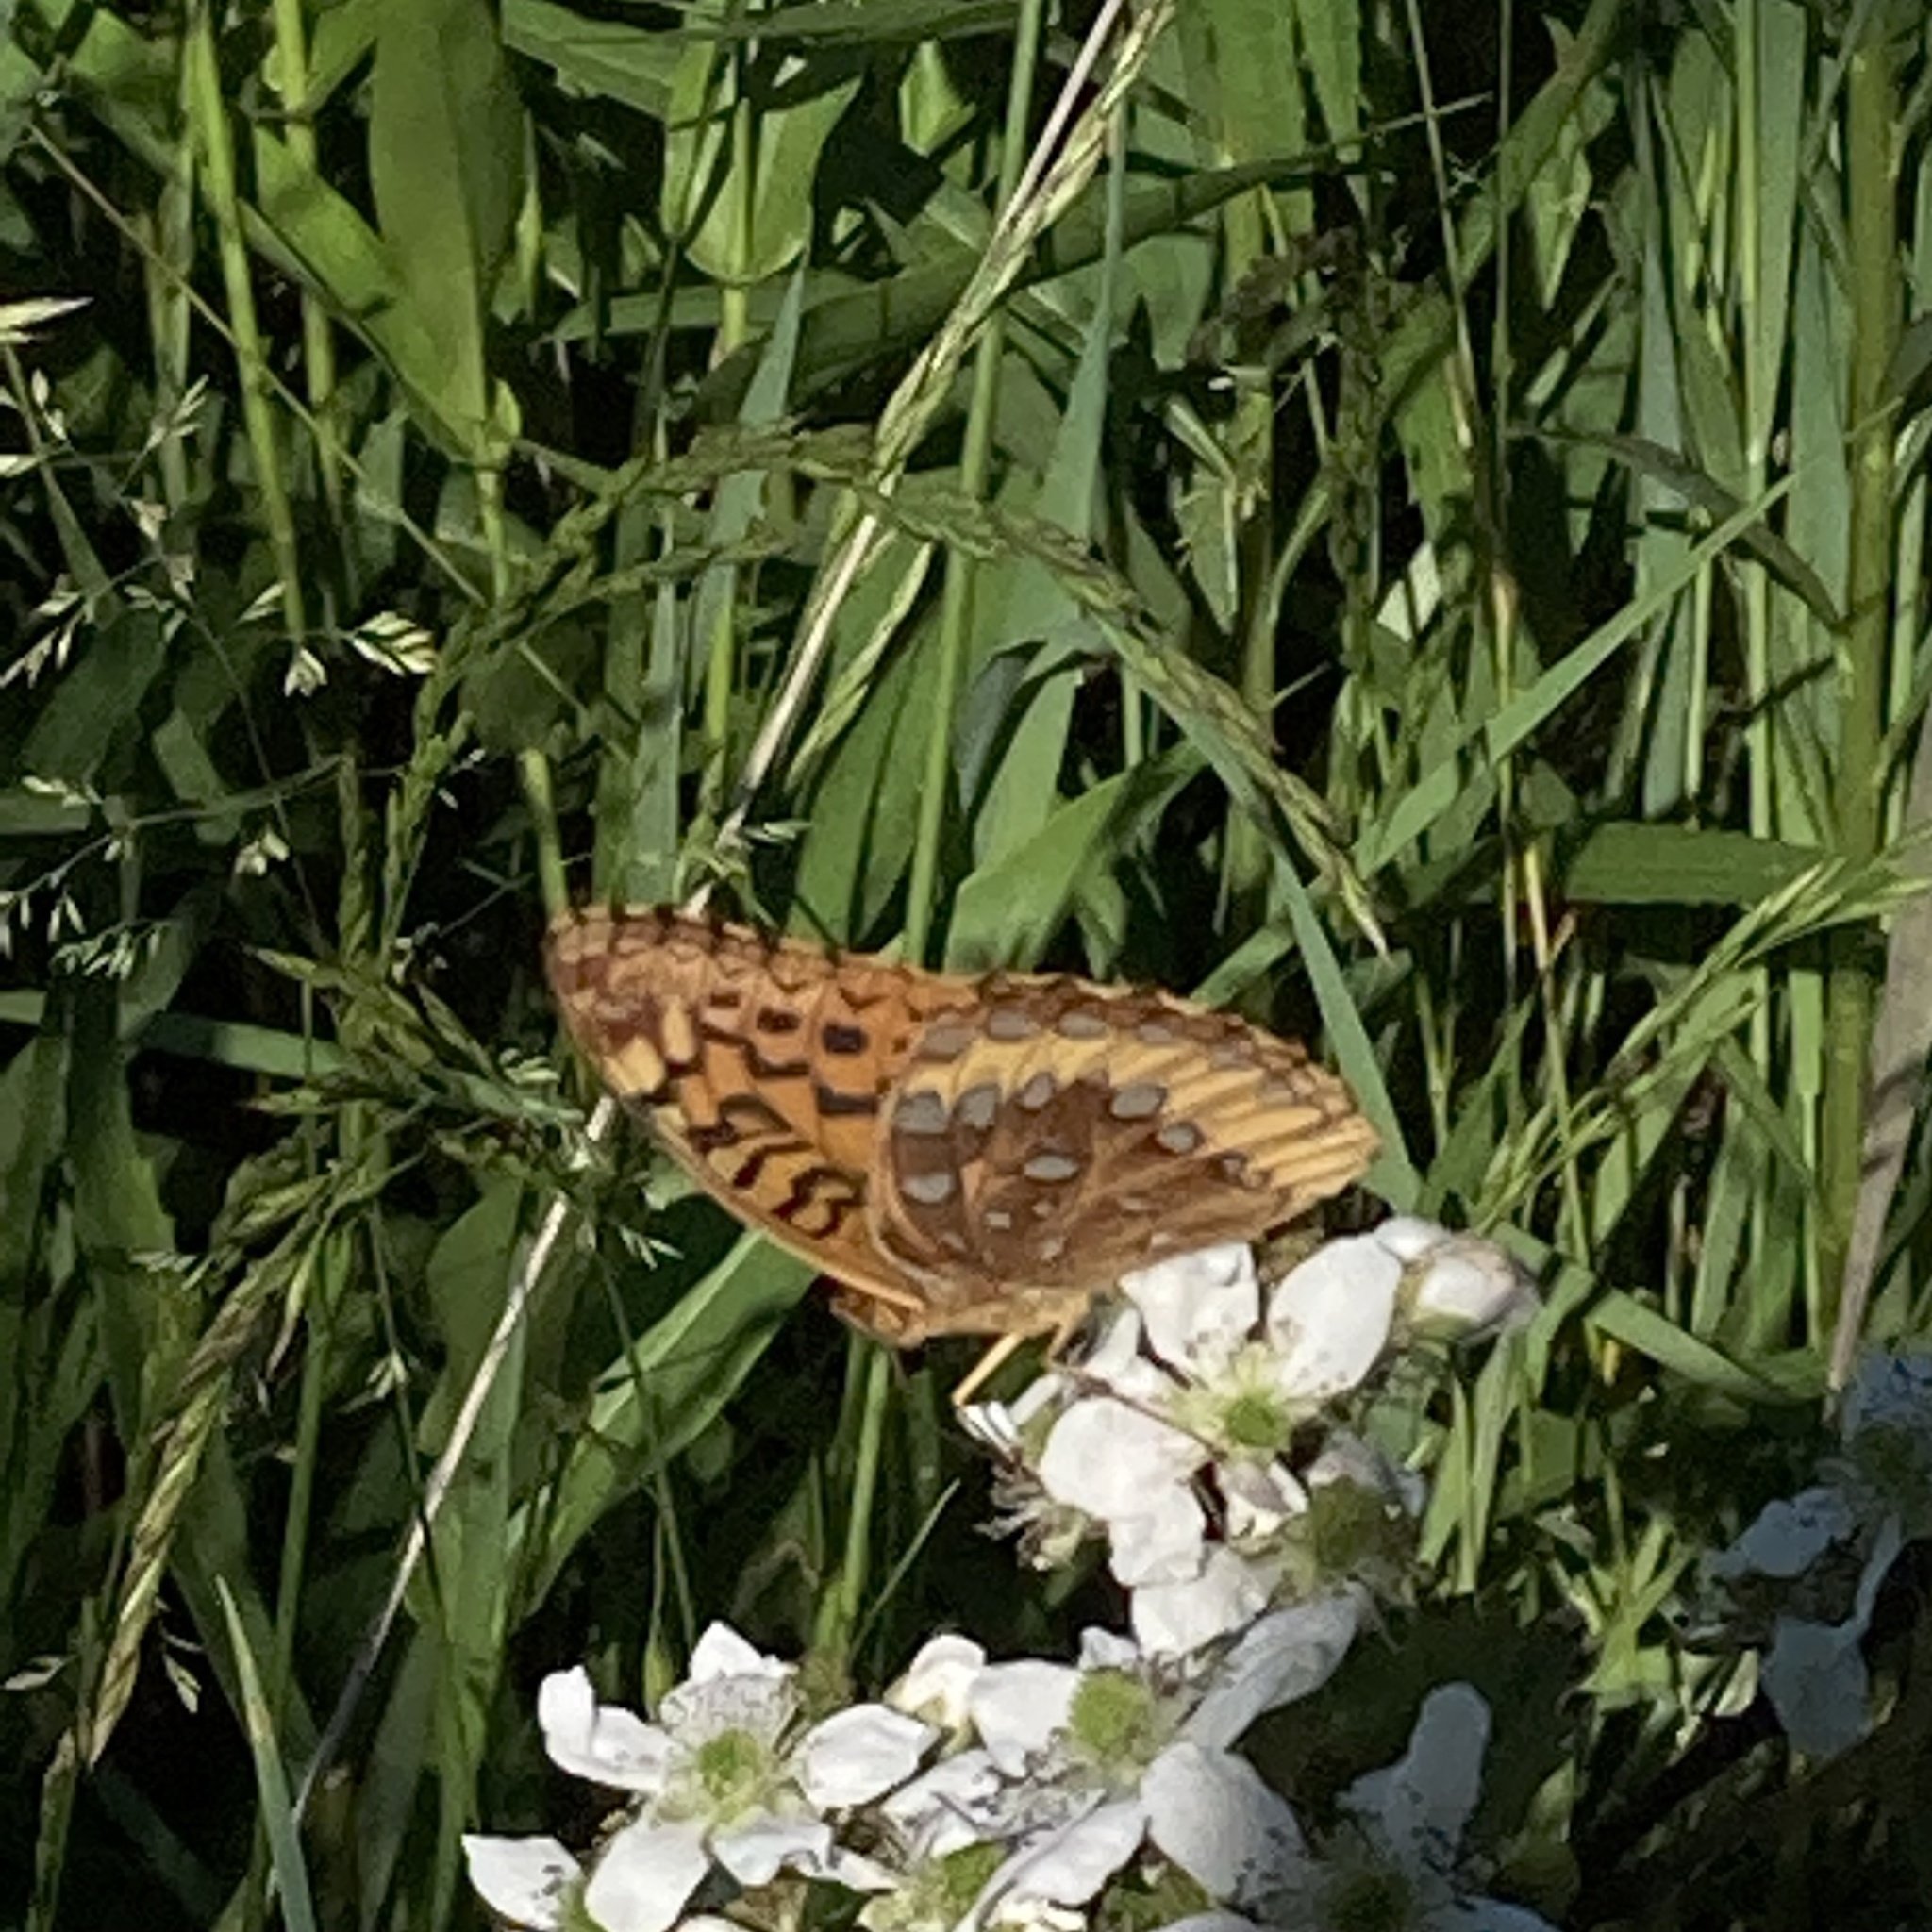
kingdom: Animalia
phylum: Arthropoda
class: Insecta
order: Lepidoptera
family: Nymphalidae
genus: Speyeria
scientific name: Speyeria cybele
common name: Great spangled fritillary
